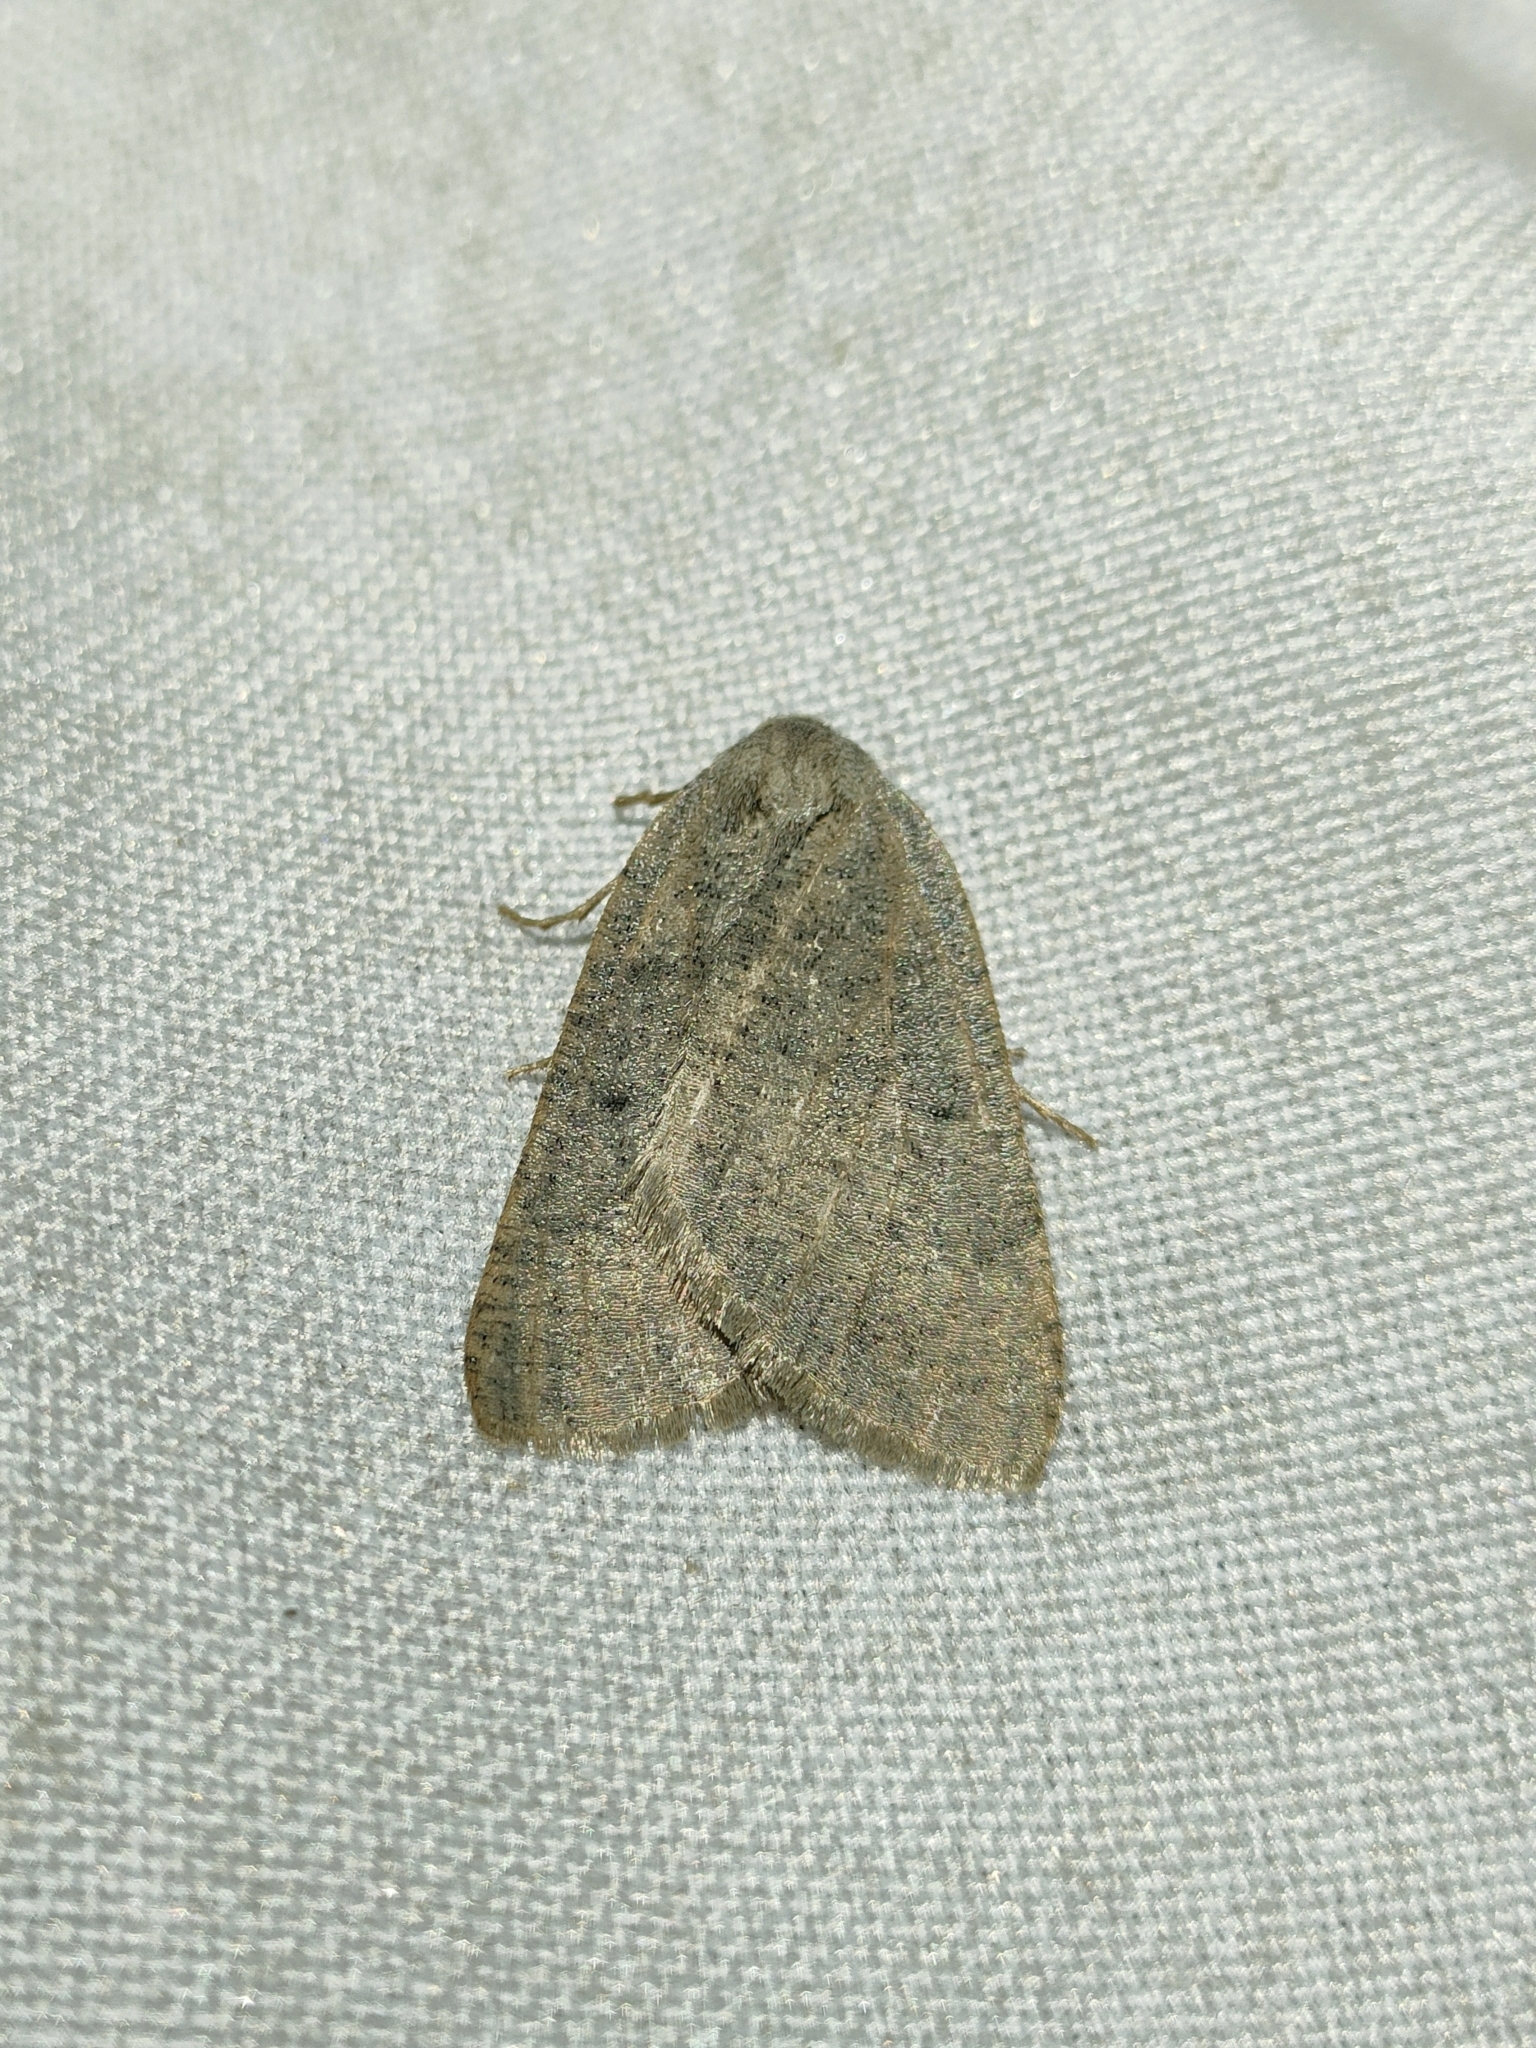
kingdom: Animalia
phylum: Arthropoda
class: Insecta
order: Lepidoptera
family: Geometridae
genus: Onychora
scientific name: Onychora agaritharia
